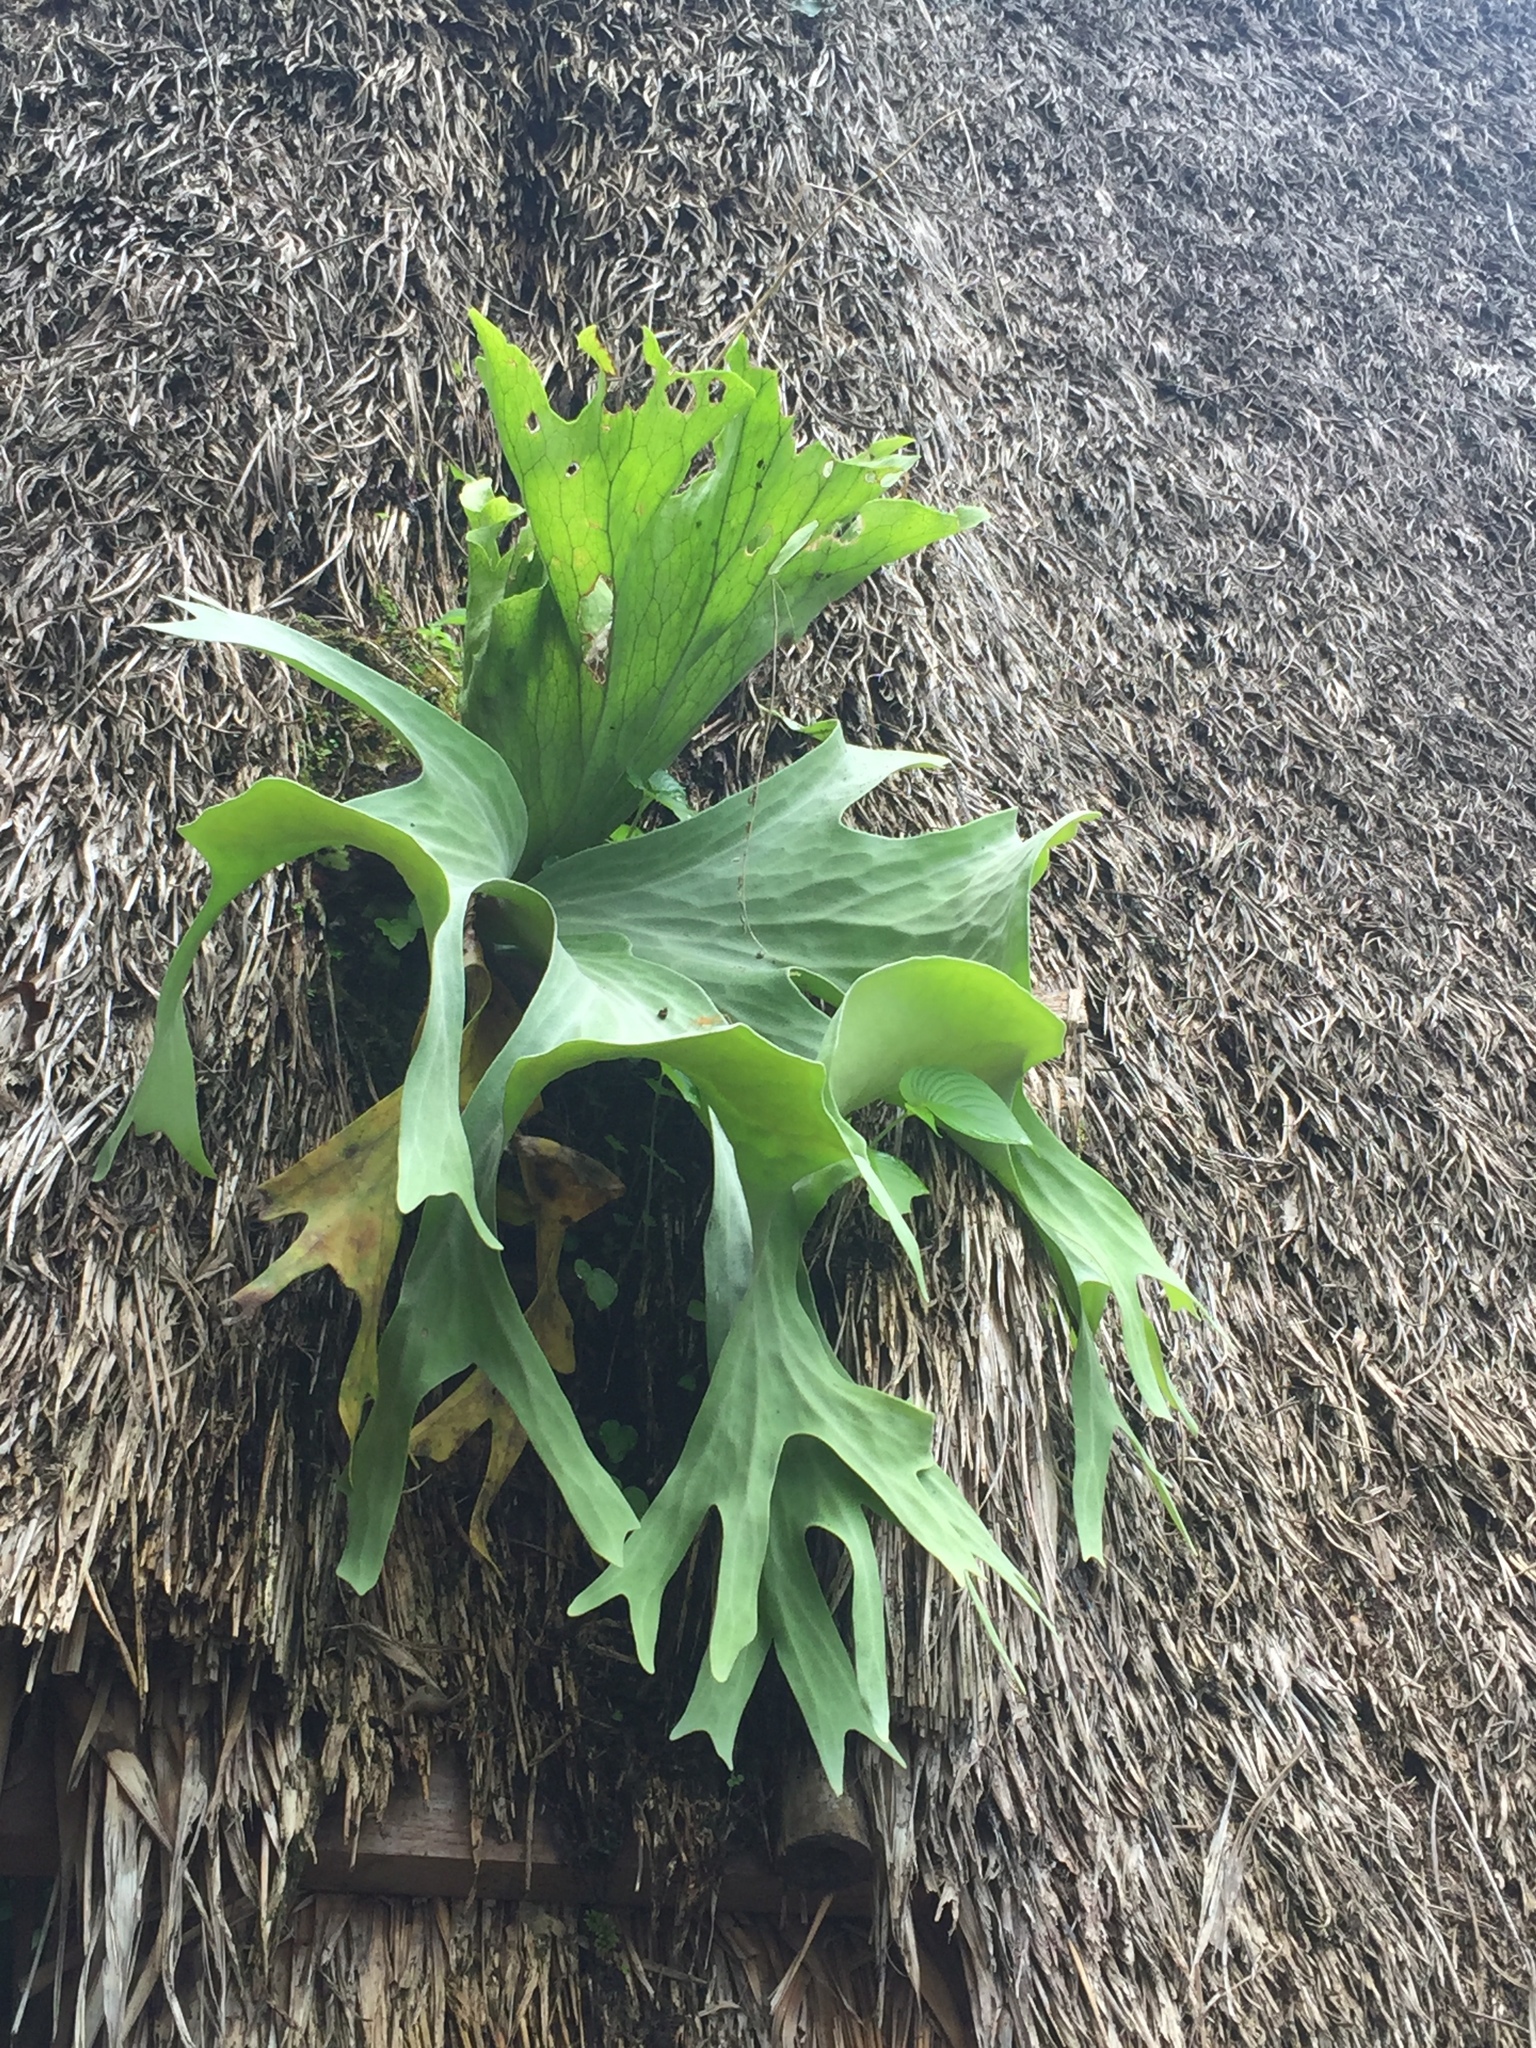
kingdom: Plantae
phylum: Tracheophyta
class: Polypodiopsida
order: Polypodiales
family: Polypodiaceae
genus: Platycerium
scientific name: Platycerium wallichii
